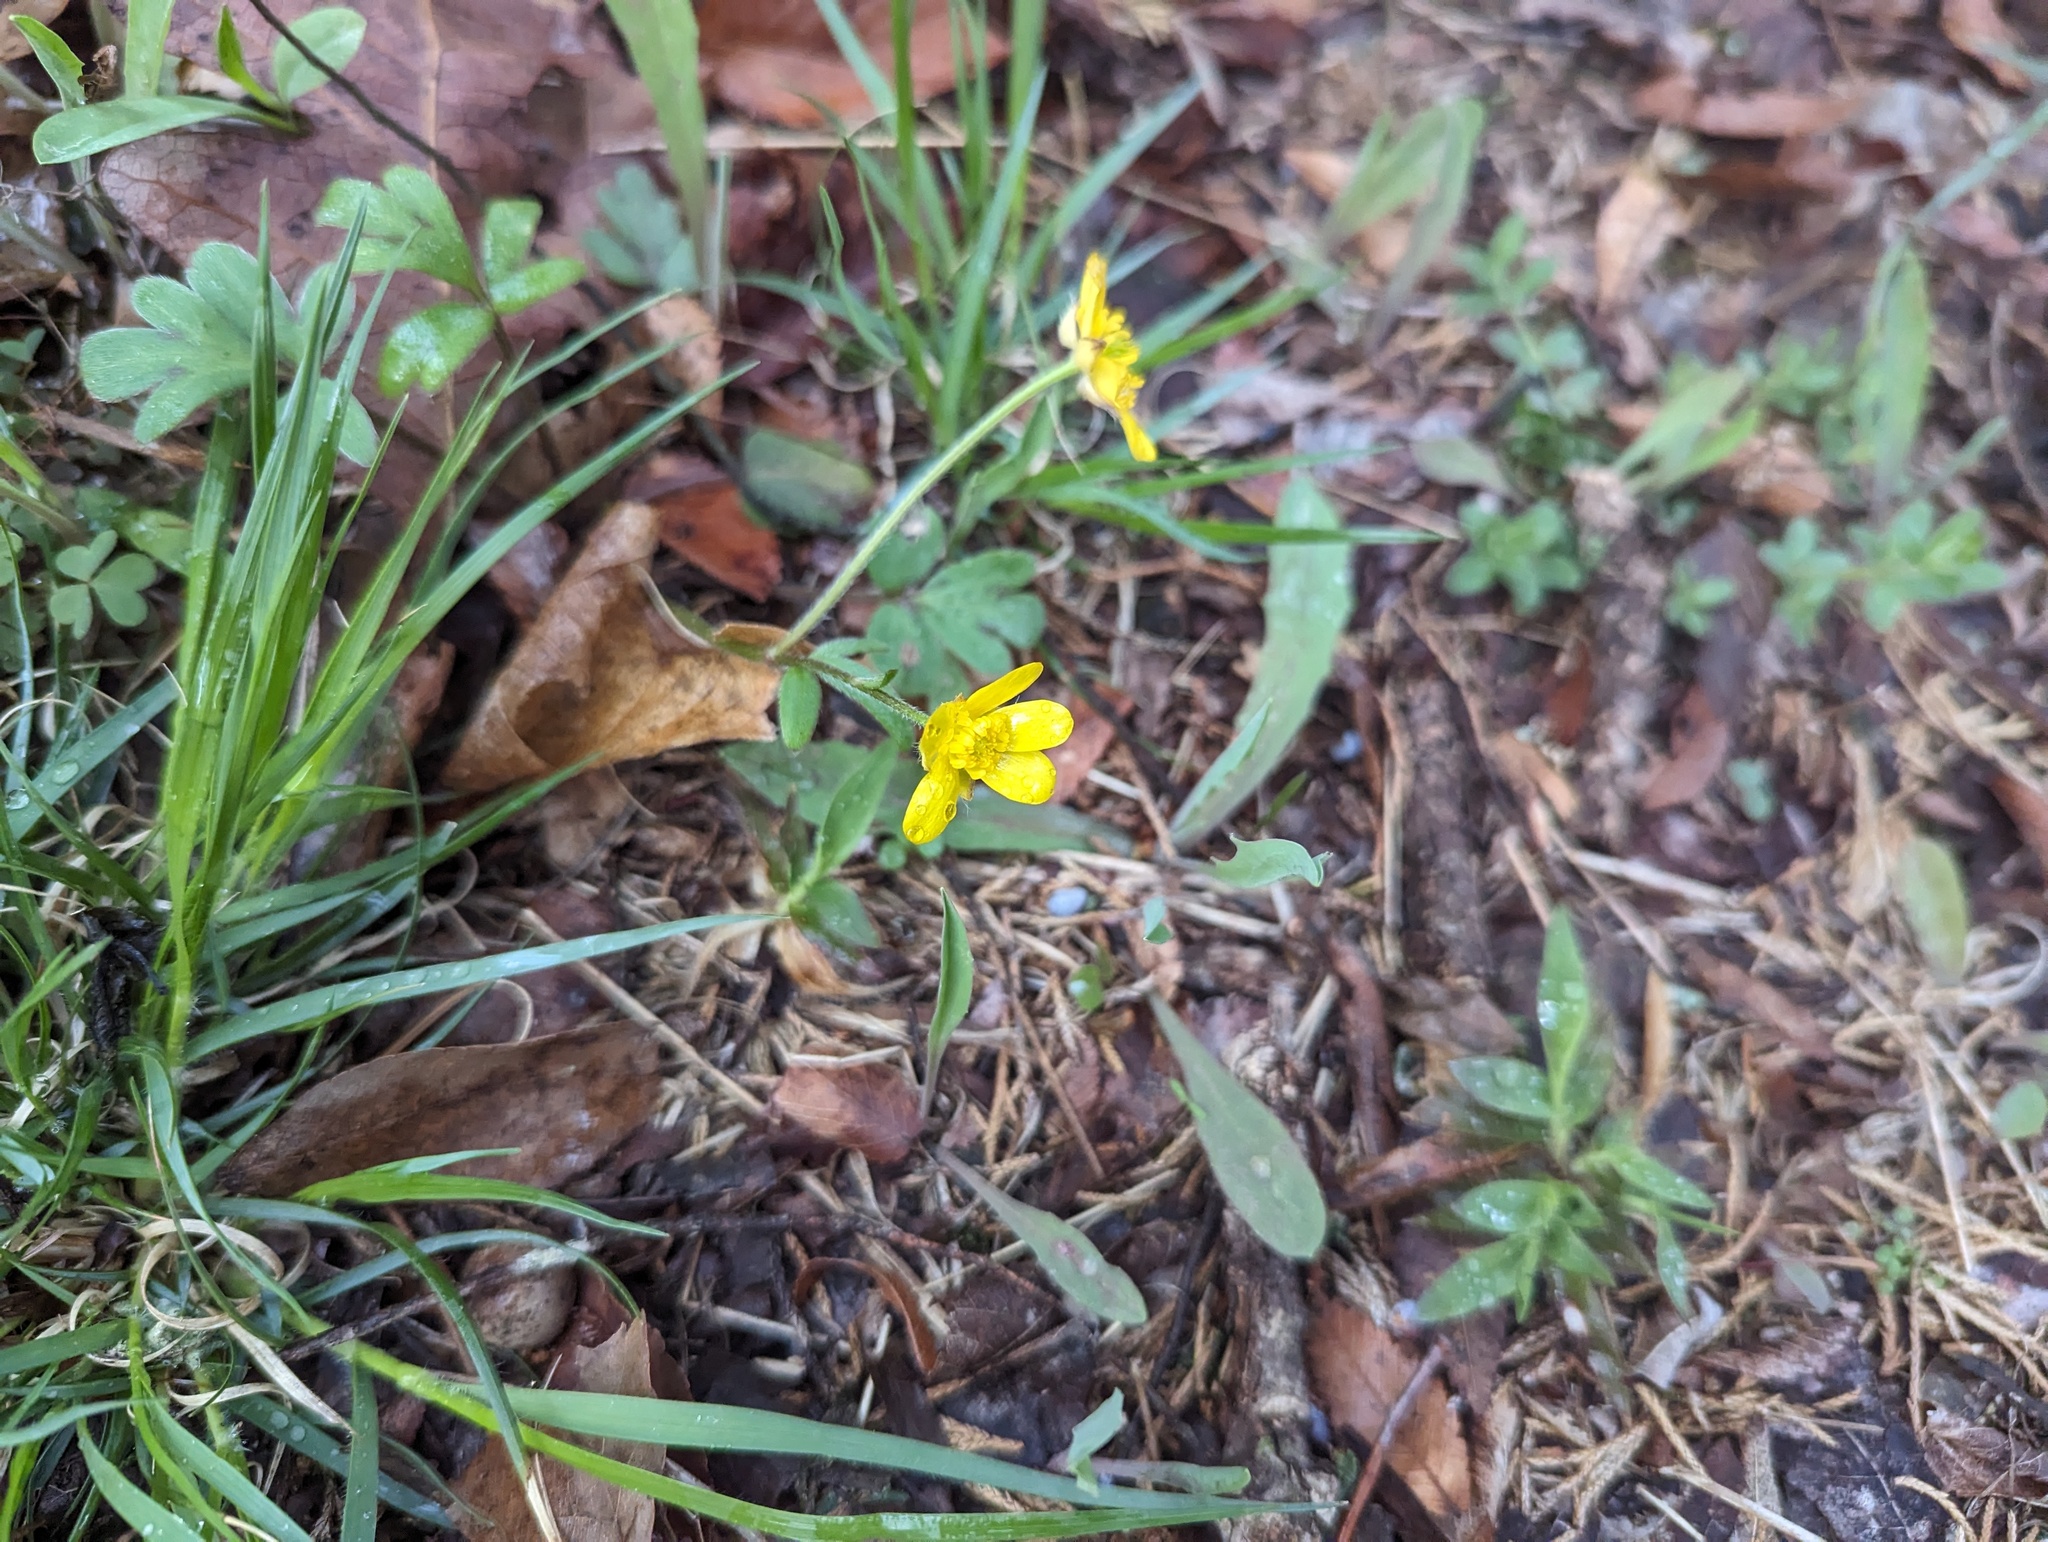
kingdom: Plantae
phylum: Tracheophyta
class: Magnoliopsida
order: Ranunculales
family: Ranunculaceae
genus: Ranunculus
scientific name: Ranunculus fascicularis
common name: Early buttercup
